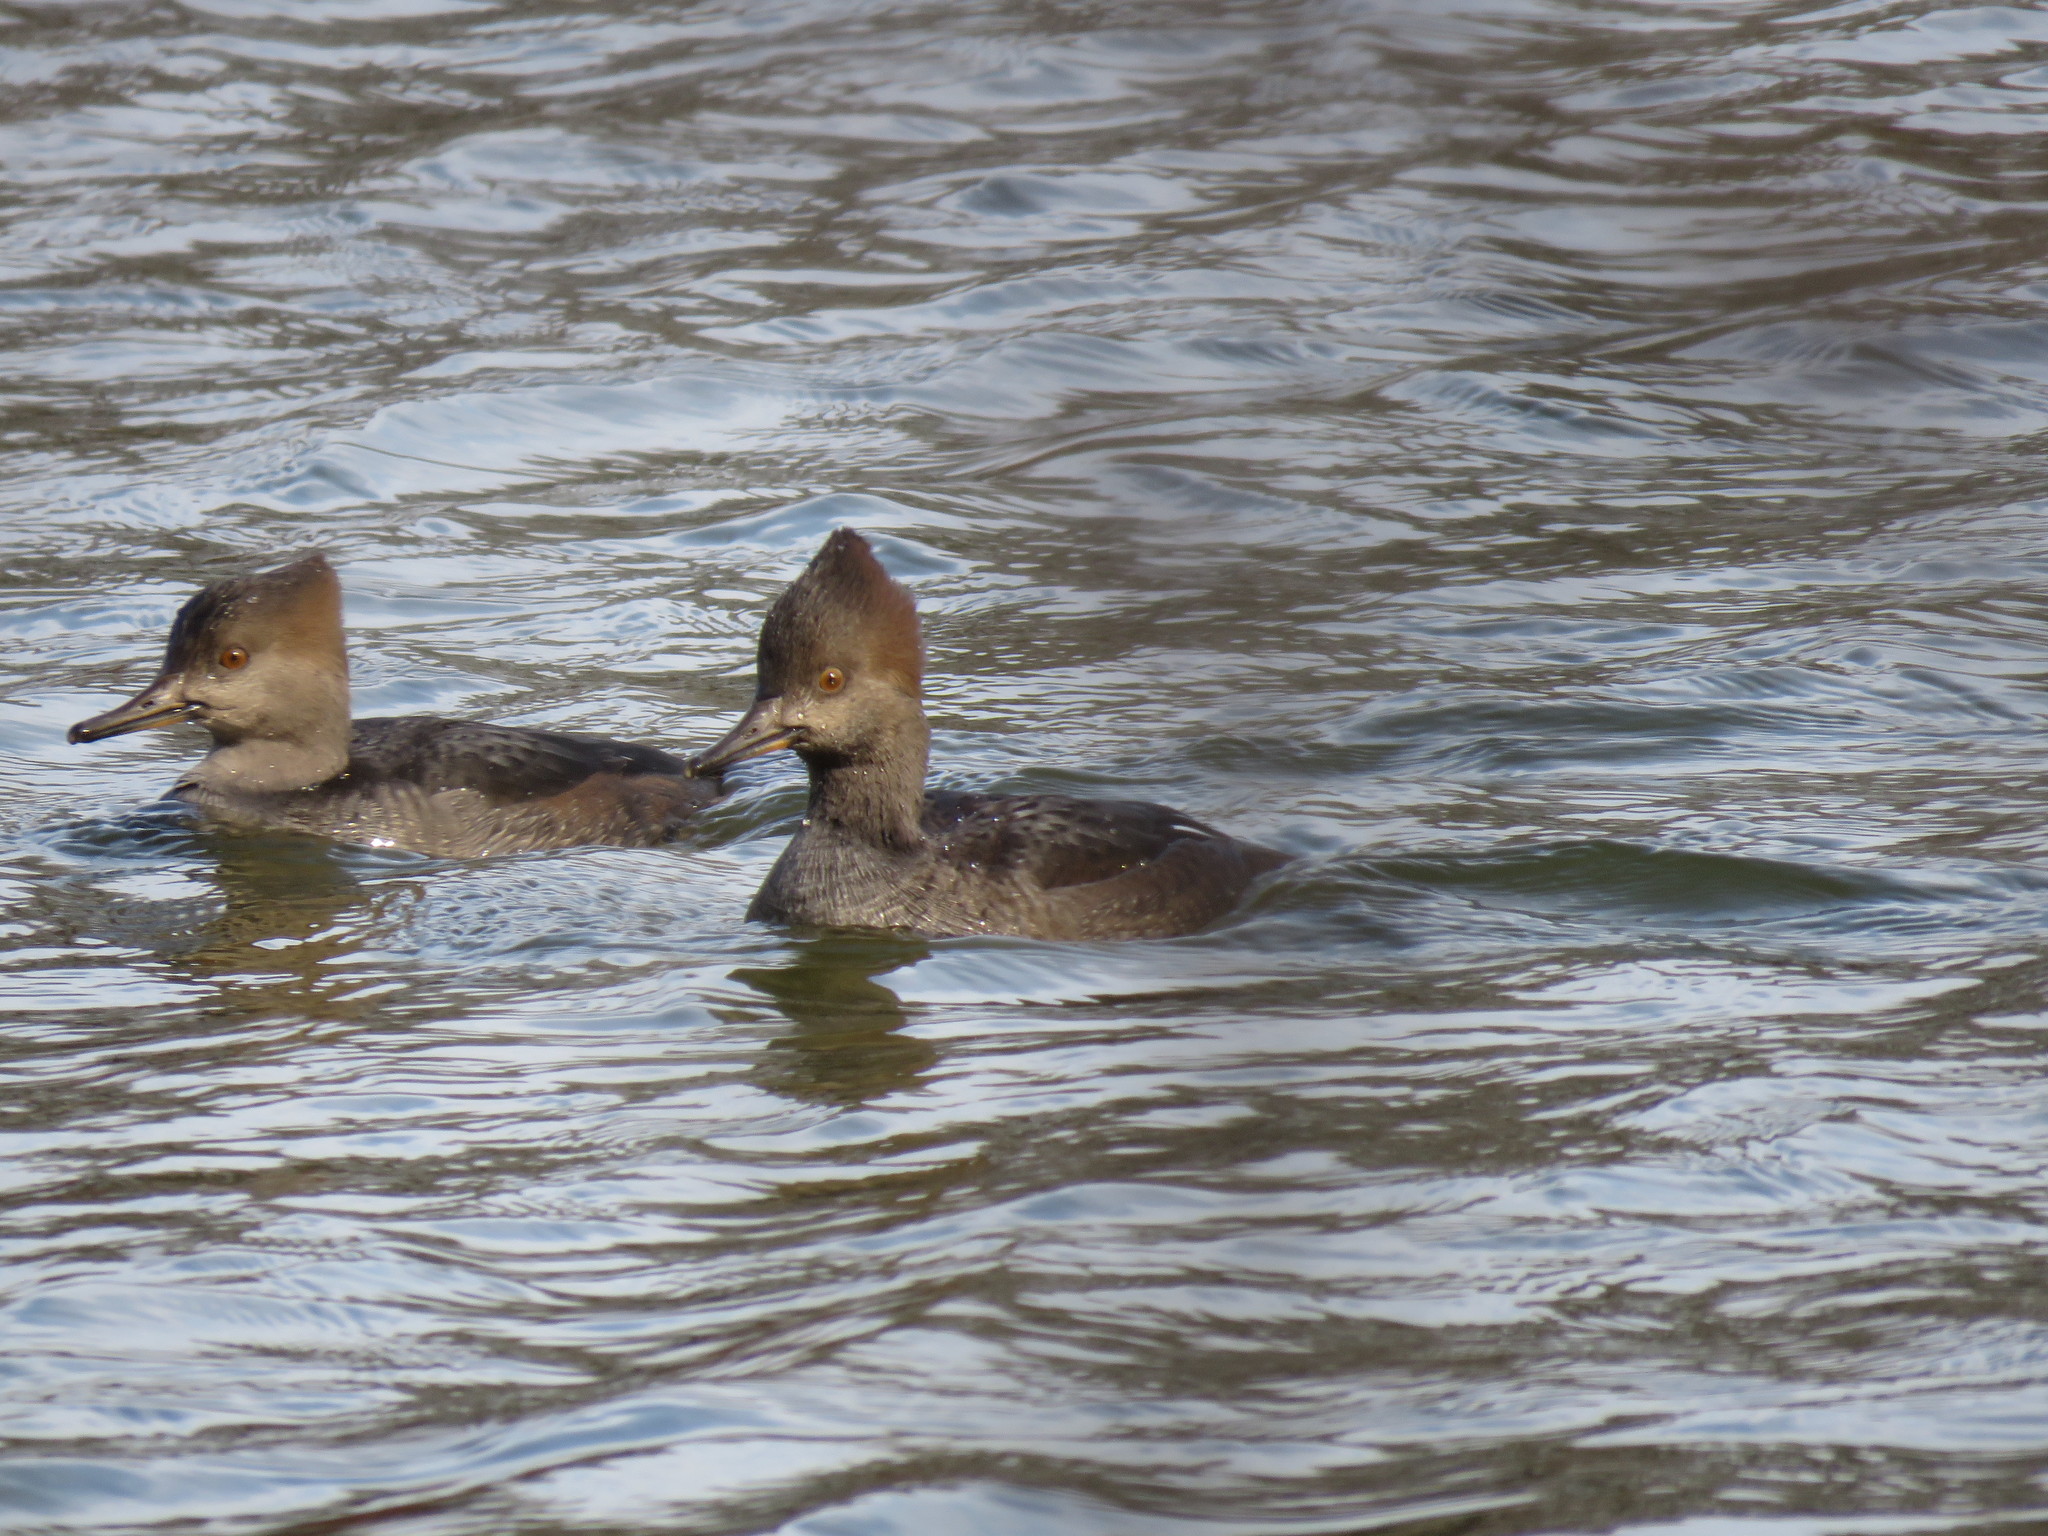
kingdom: Animalia
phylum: Chordata
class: Aves
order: Anseriformes
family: Anatidae
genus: Lophodytes
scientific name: Lophodytes cucullatus
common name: Hooded merganser
